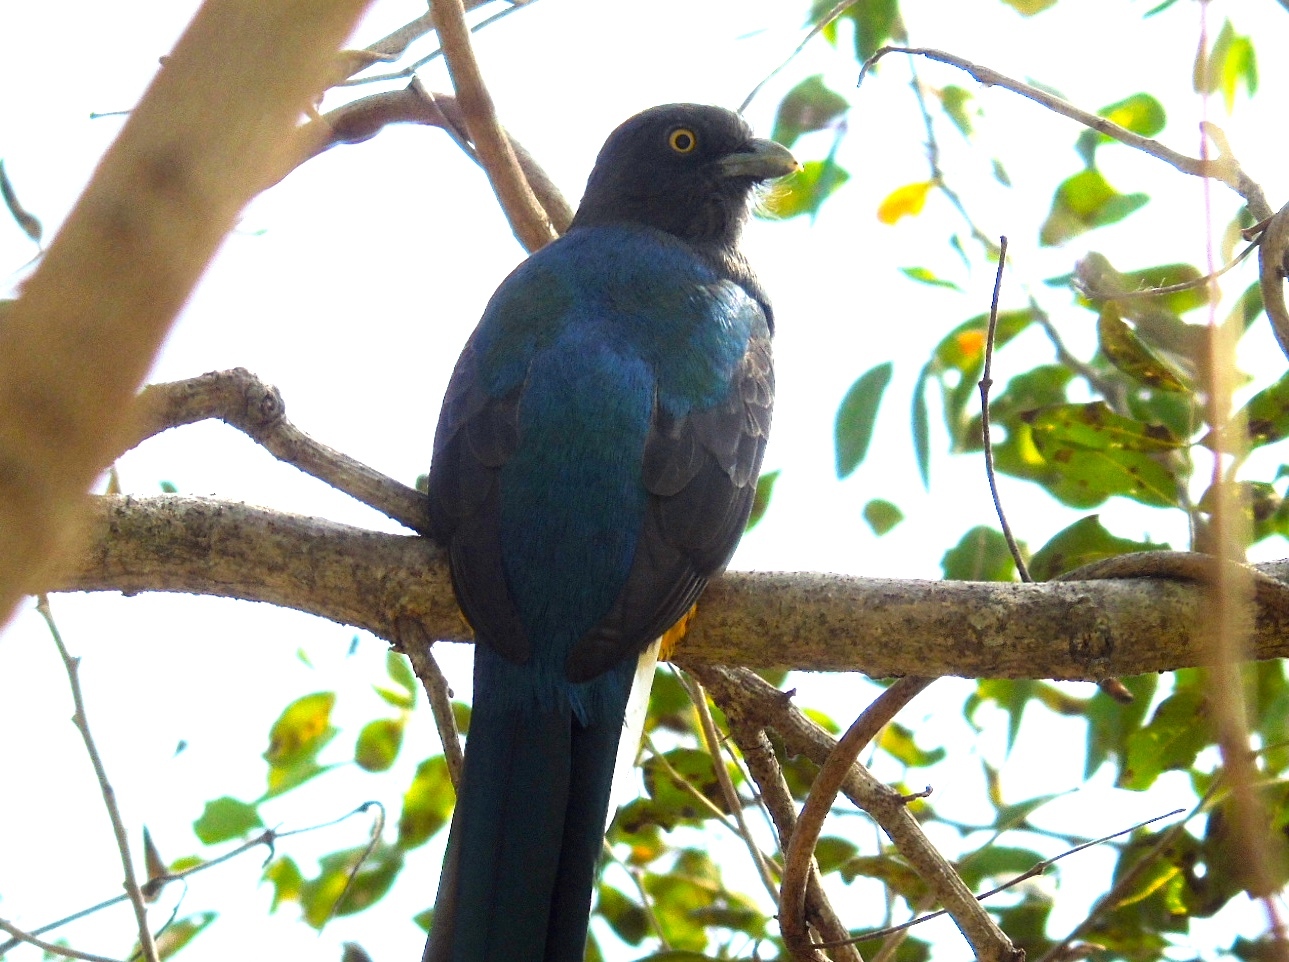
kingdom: Animalia
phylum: Chordata
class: Aves
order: Trogoniformes
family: Trogonidae
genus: Trogon
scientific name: Trogon citreolus
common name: Citreoline trogon
